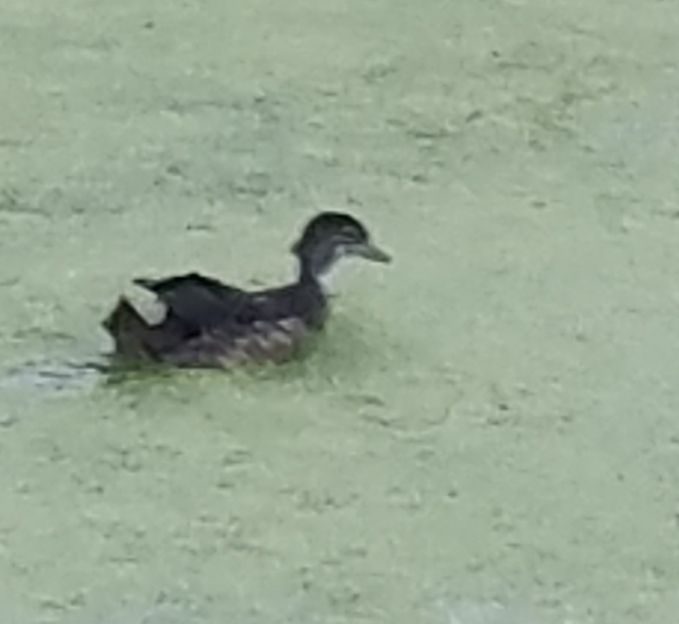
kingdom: Animalia
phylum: Chordata
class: Aves
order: Anseriformes
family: Anatidae
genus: Aix
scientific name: Aix sponsa
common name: Wood duck
